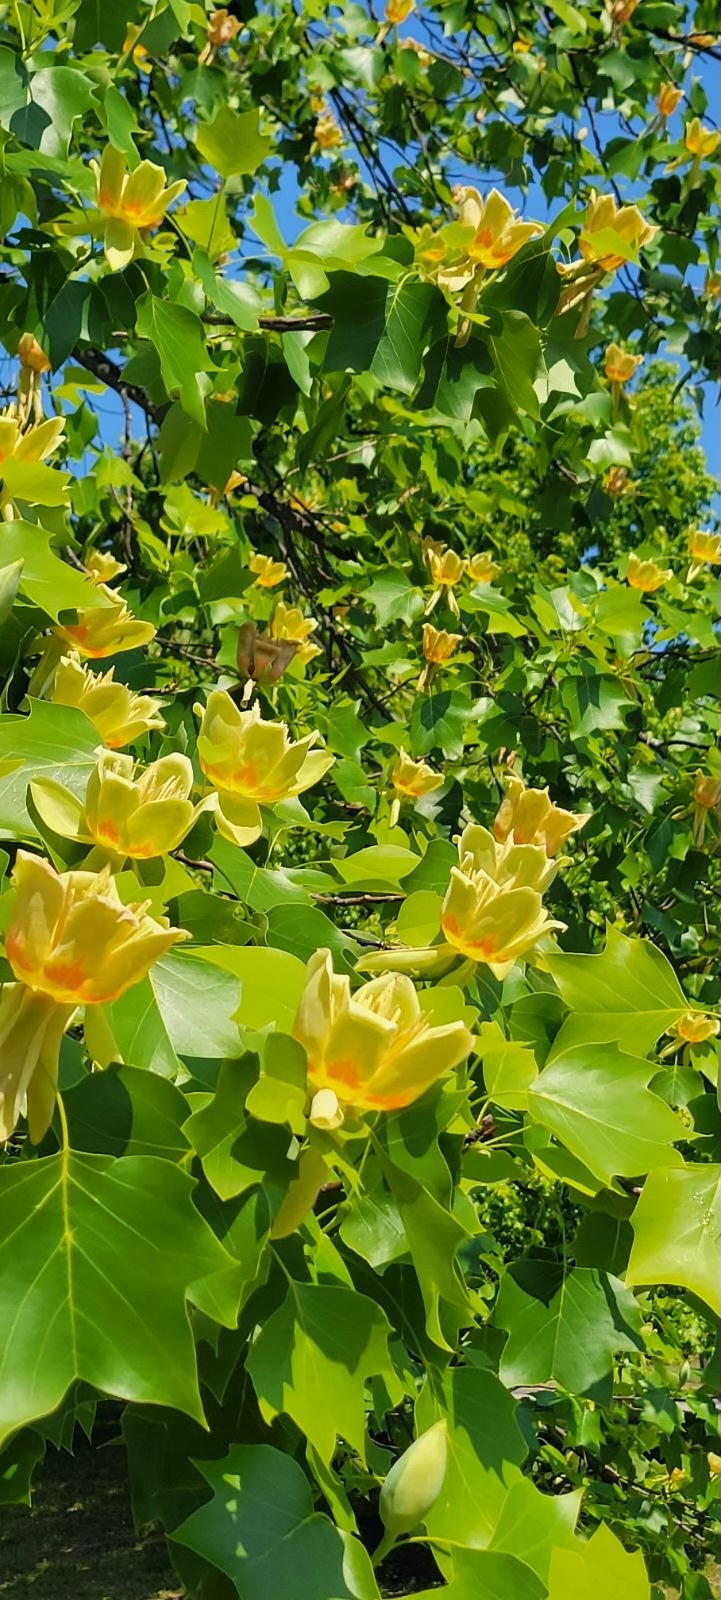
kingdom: Plantae
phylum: Tracheophyta
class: Magnoliopsida
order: Magnoliales
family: Magnoliaceae
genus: Liriodendron
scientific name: Liriodendron tulipifera
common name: Tulip tree
